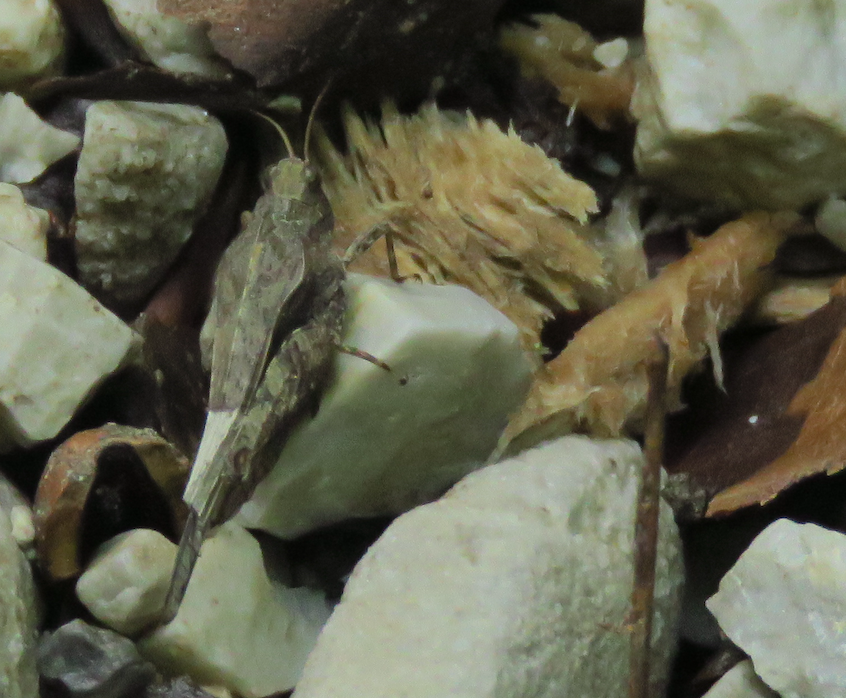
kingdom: Animalia
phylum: Arthropoda
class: Insecta
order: Orthoptera
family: Tetrigidae
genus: Tetrix
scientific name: Tetrix subulata
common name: Slender ground-hopper
